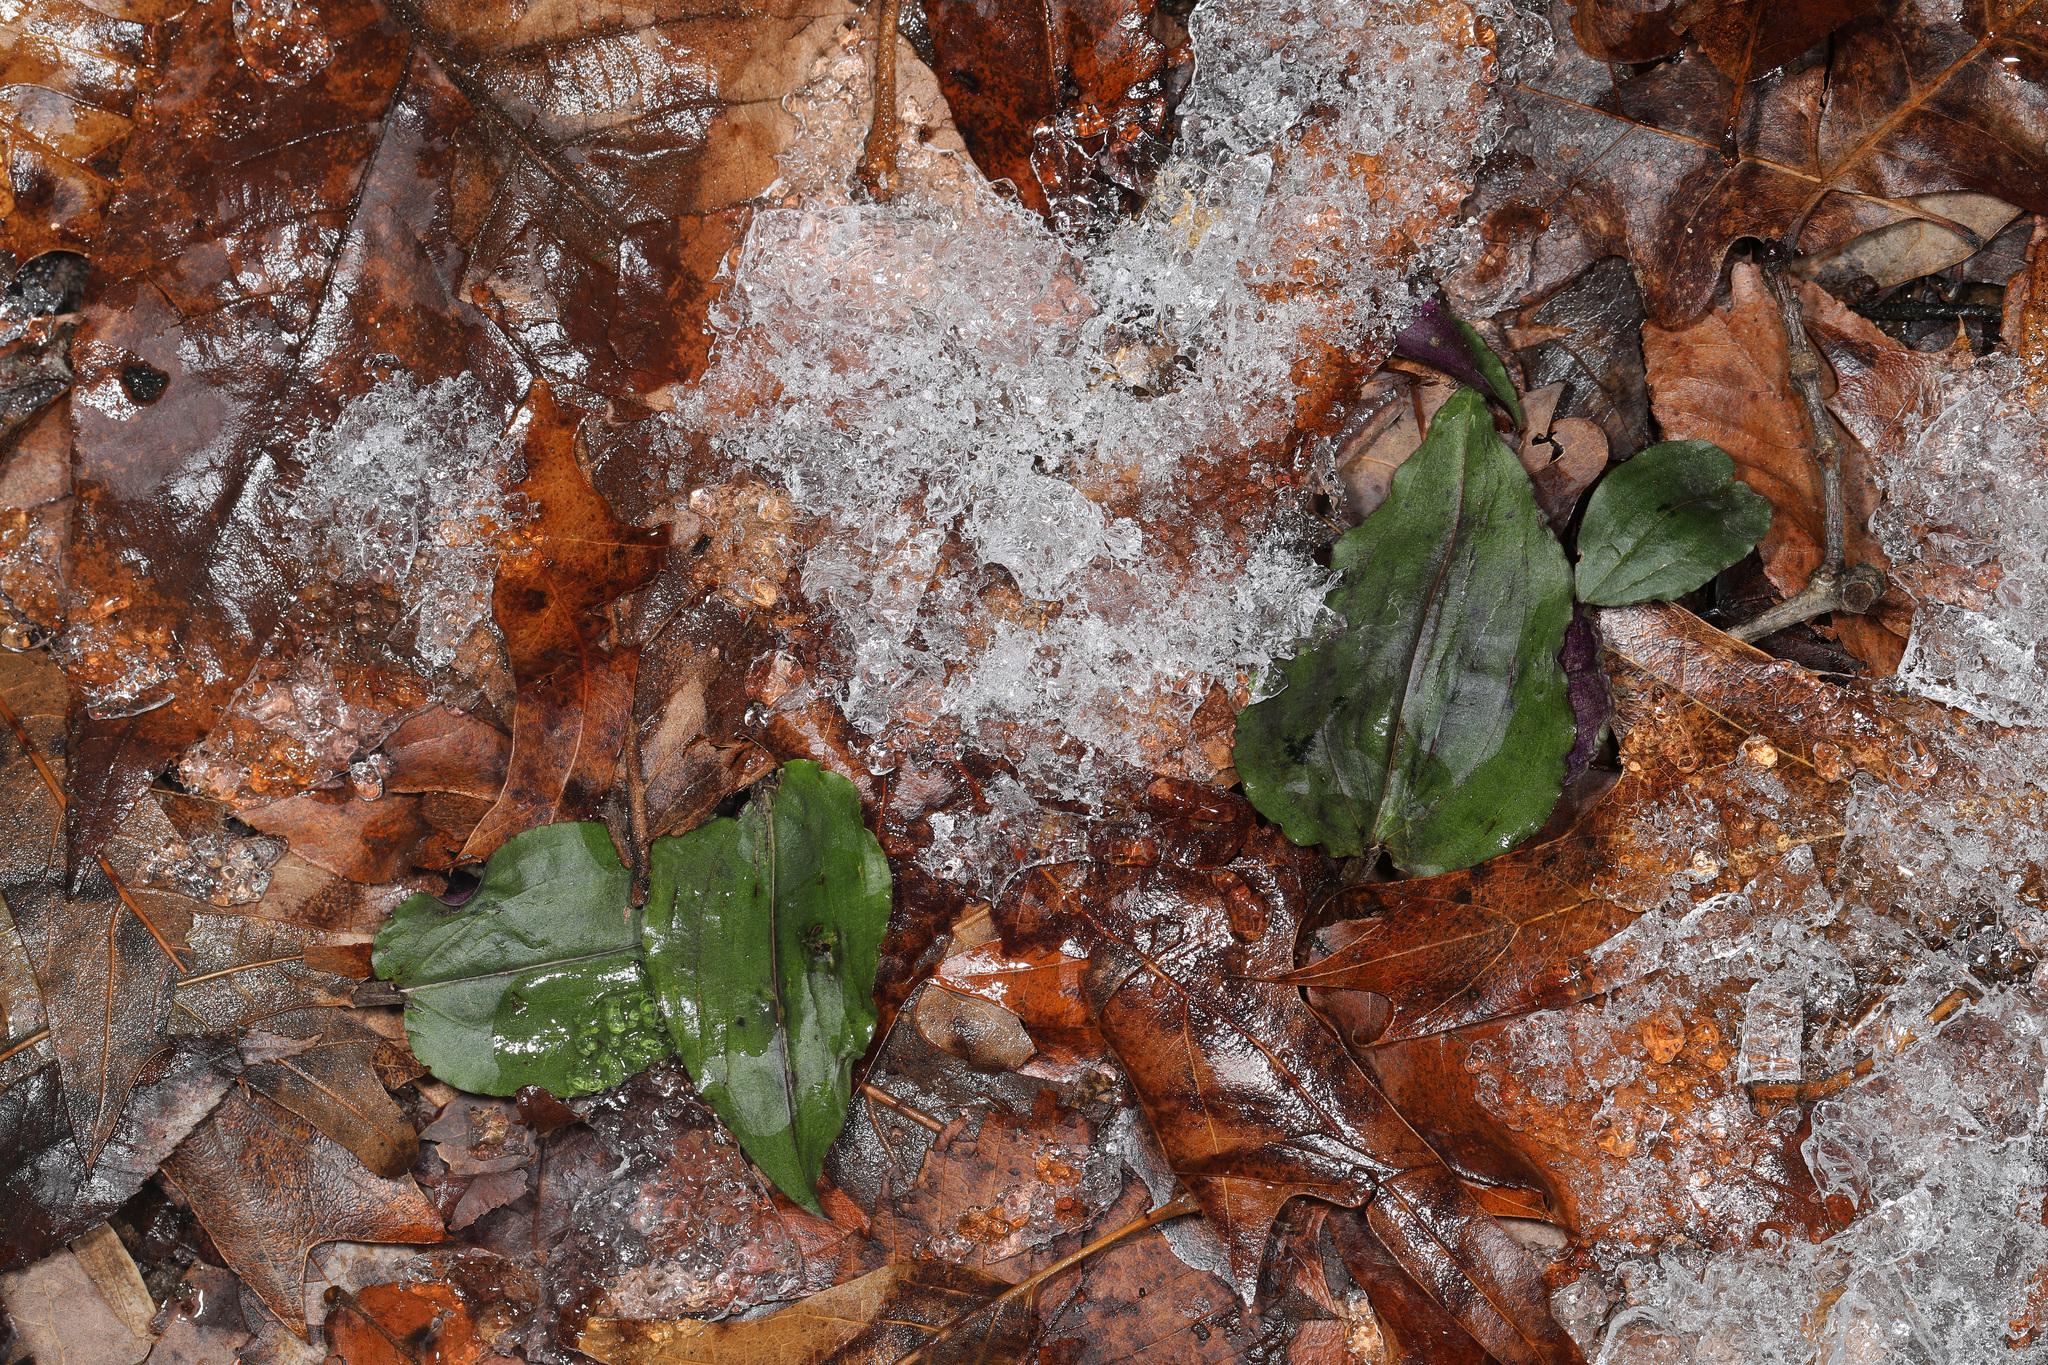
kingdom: Plantae
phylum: Tracheophyta
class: Liliopsida
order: Asparagales
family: Orchidaceae
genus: Tipularia
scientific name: Tipularia discolor
